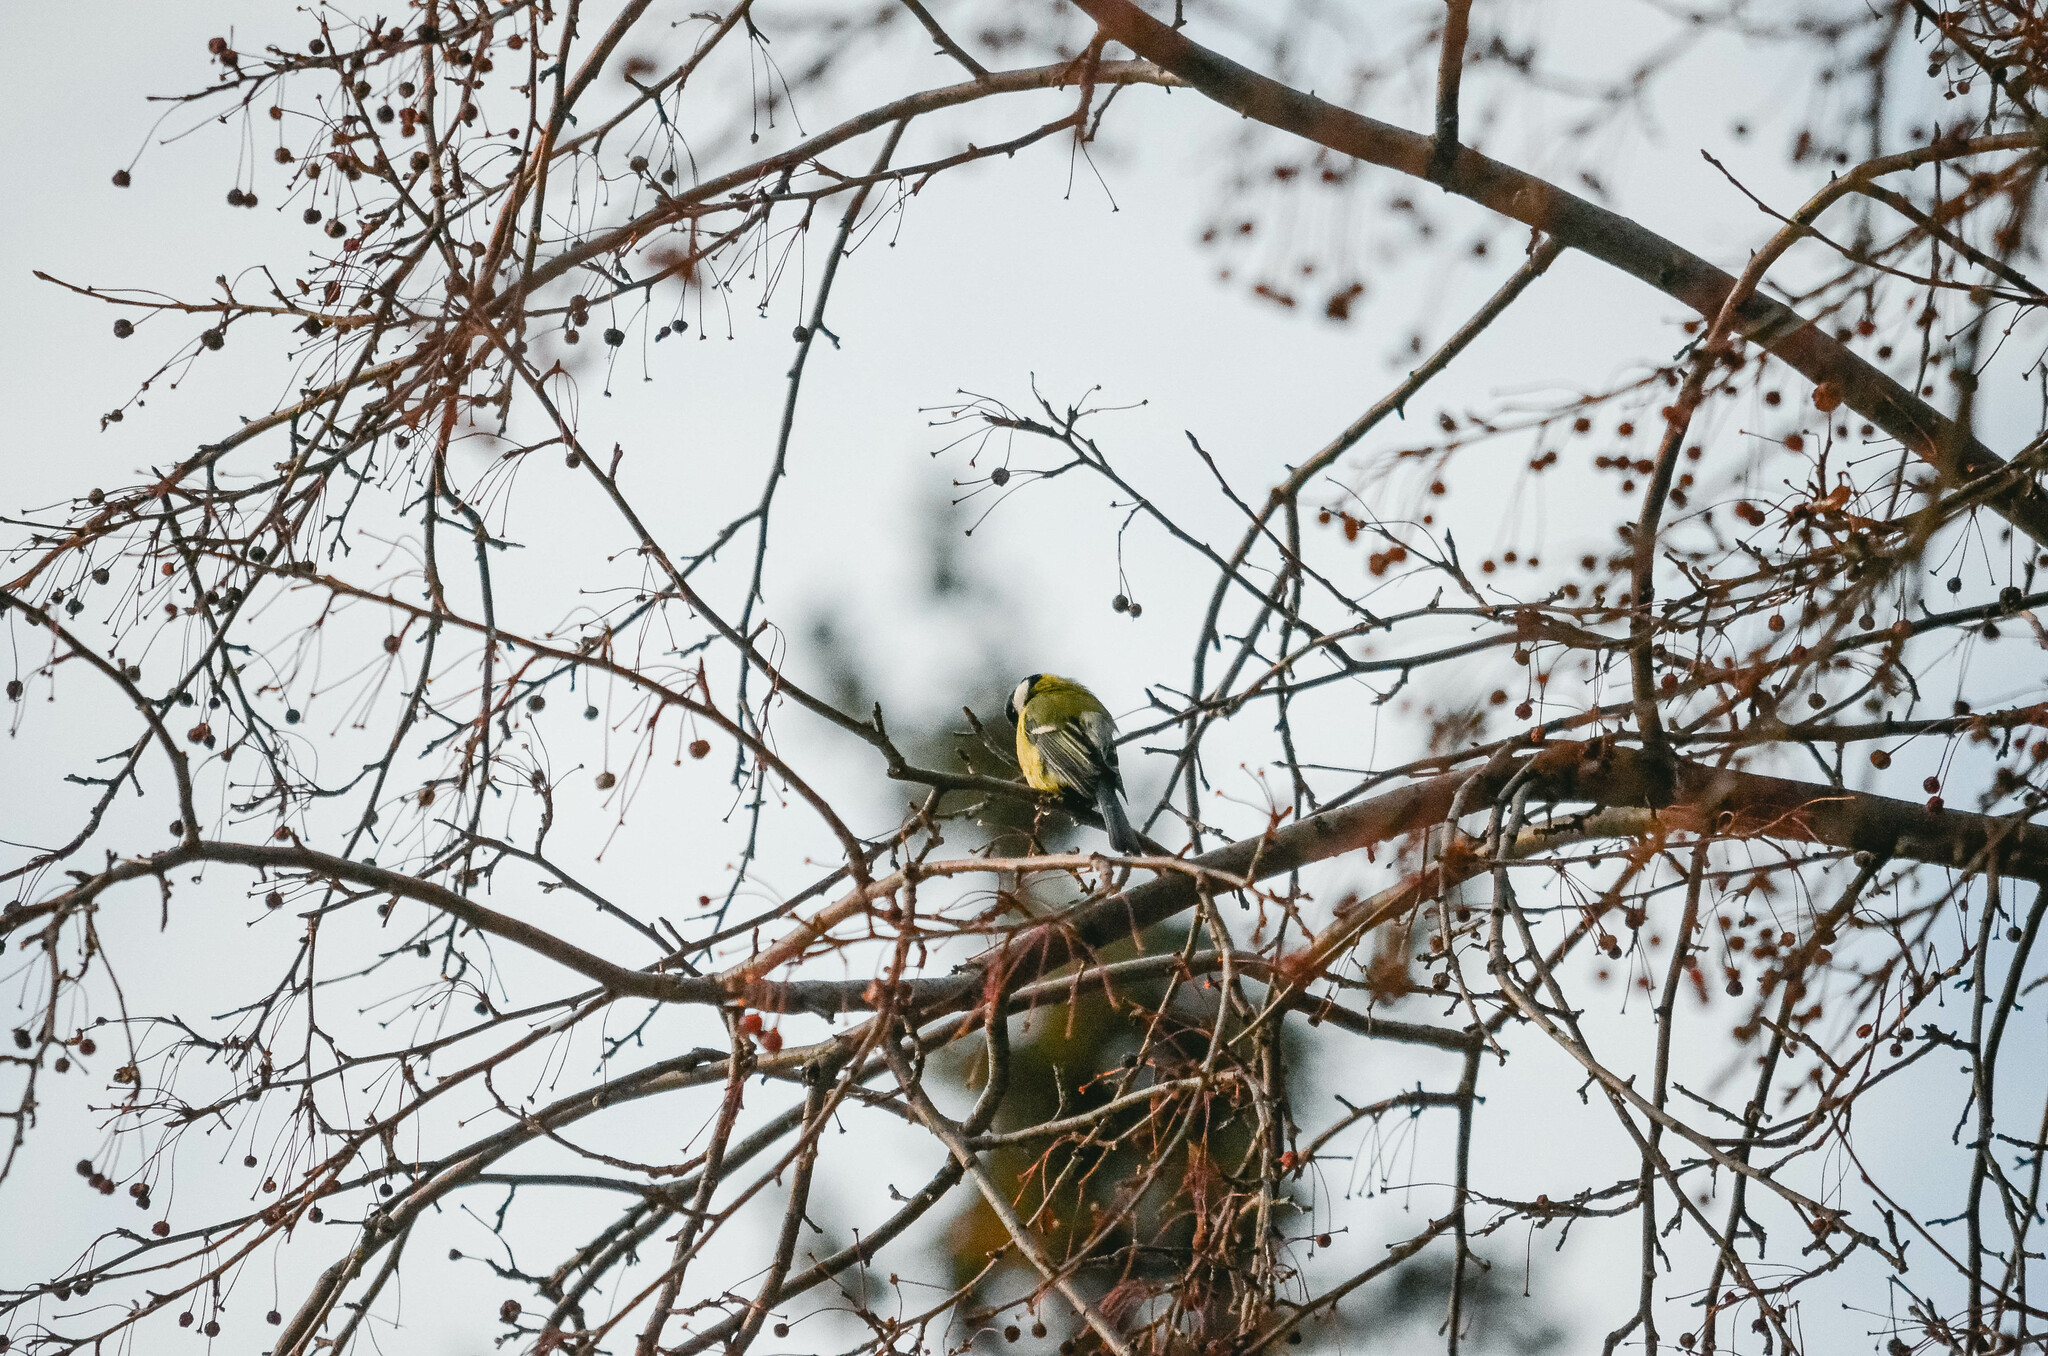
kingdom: Animalia
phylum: Chordata
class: Aves
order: Passeriformes
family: Paridae
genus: Parus
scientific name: Parus major
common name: Great tit
